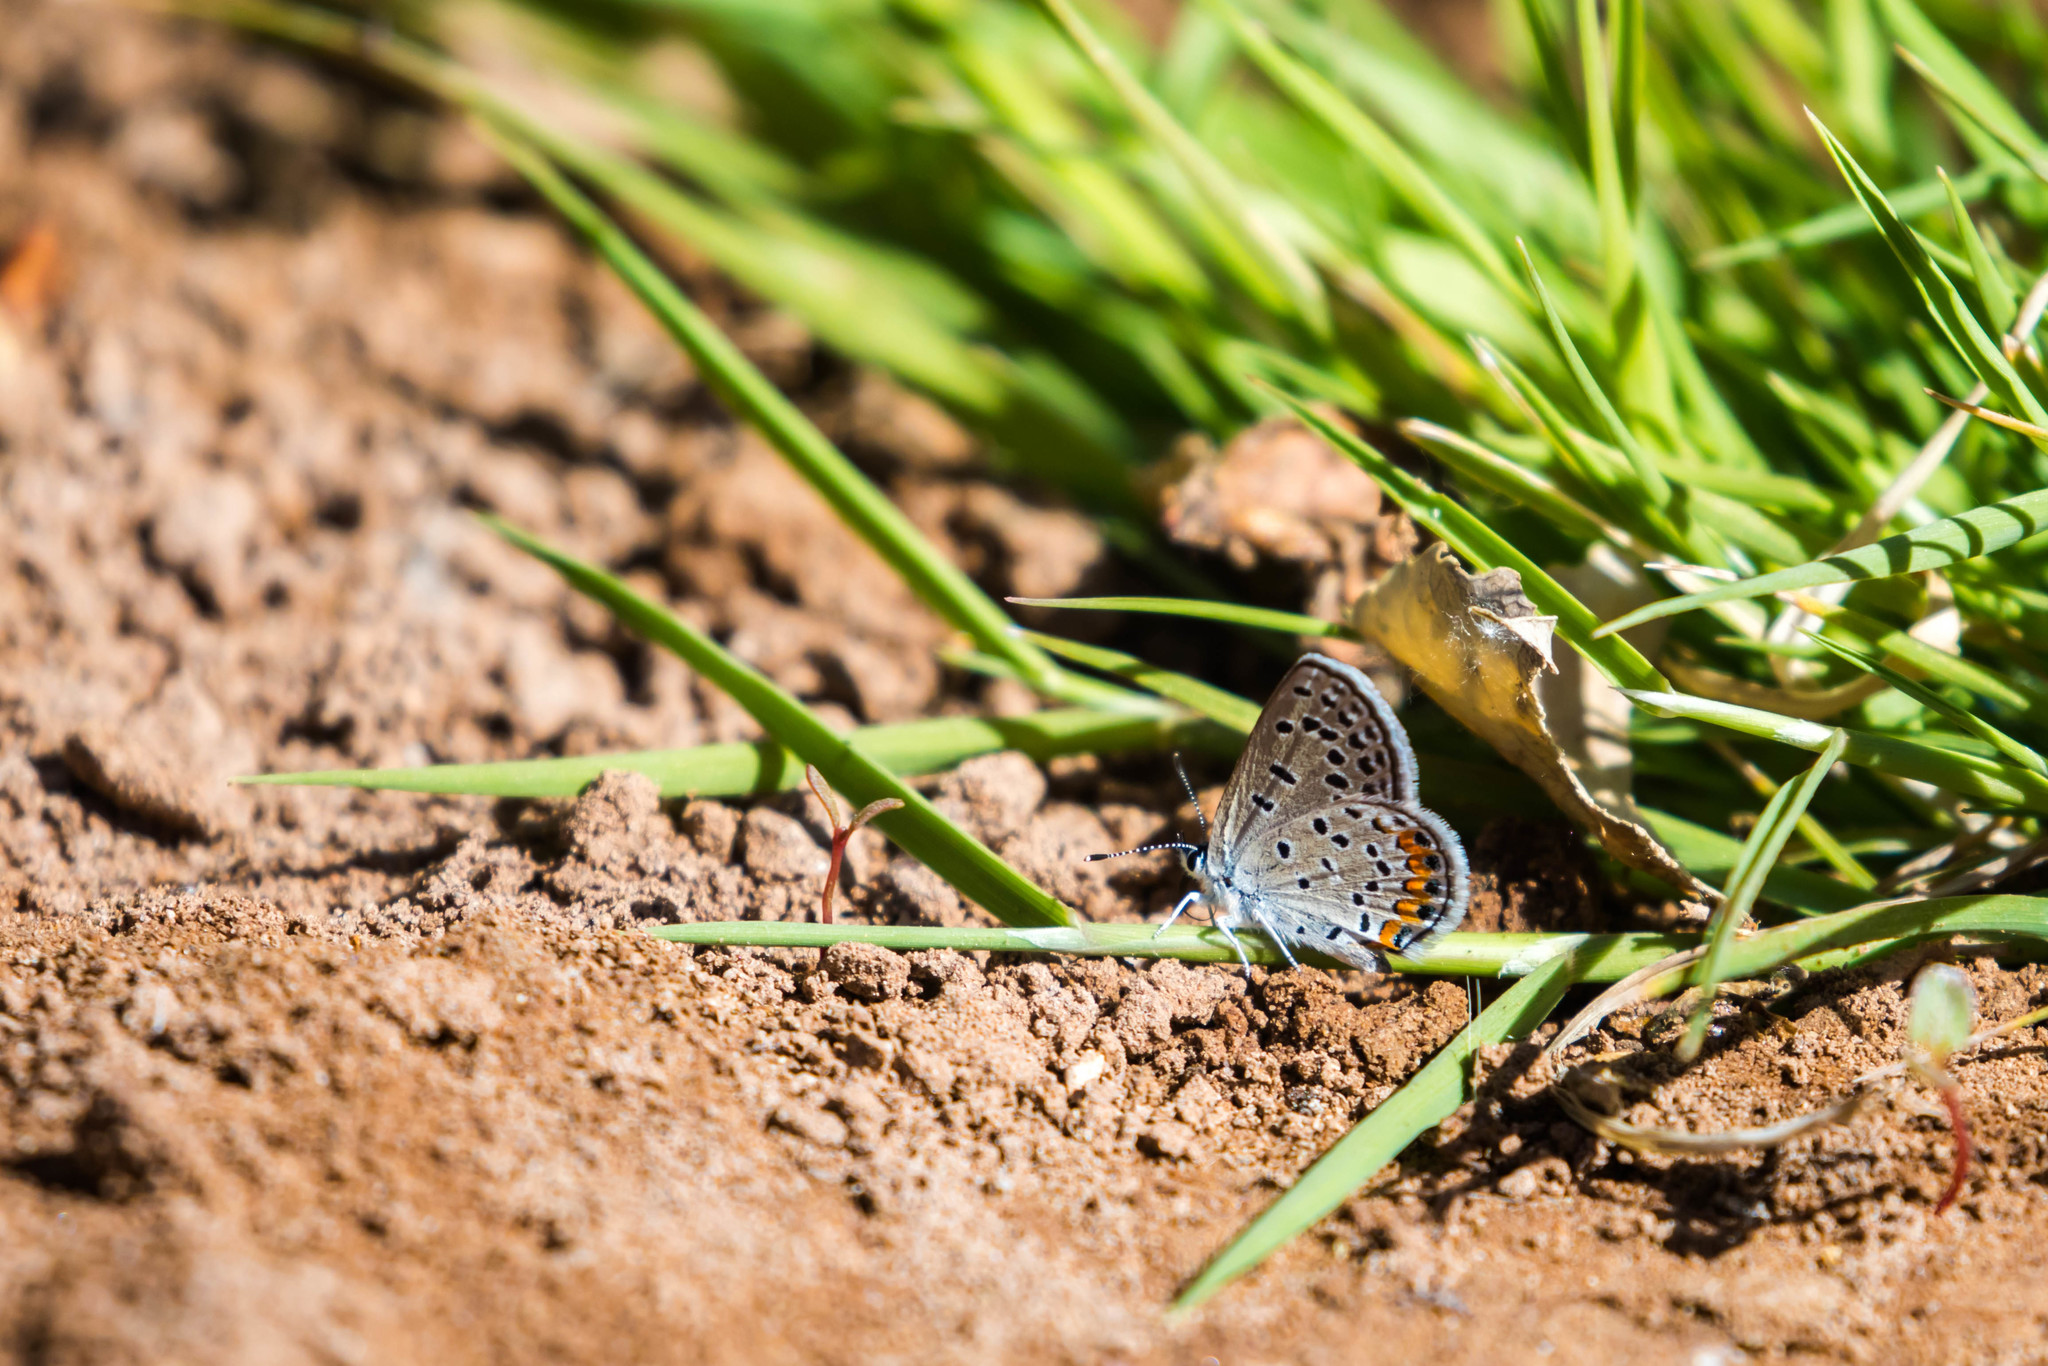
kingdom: Animalia
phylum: Arthropoda
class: Insecta
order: Lepidoptera
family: Lycaenidae
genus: Icaricia
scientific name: Icaricia acmon
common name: Acmon blue
